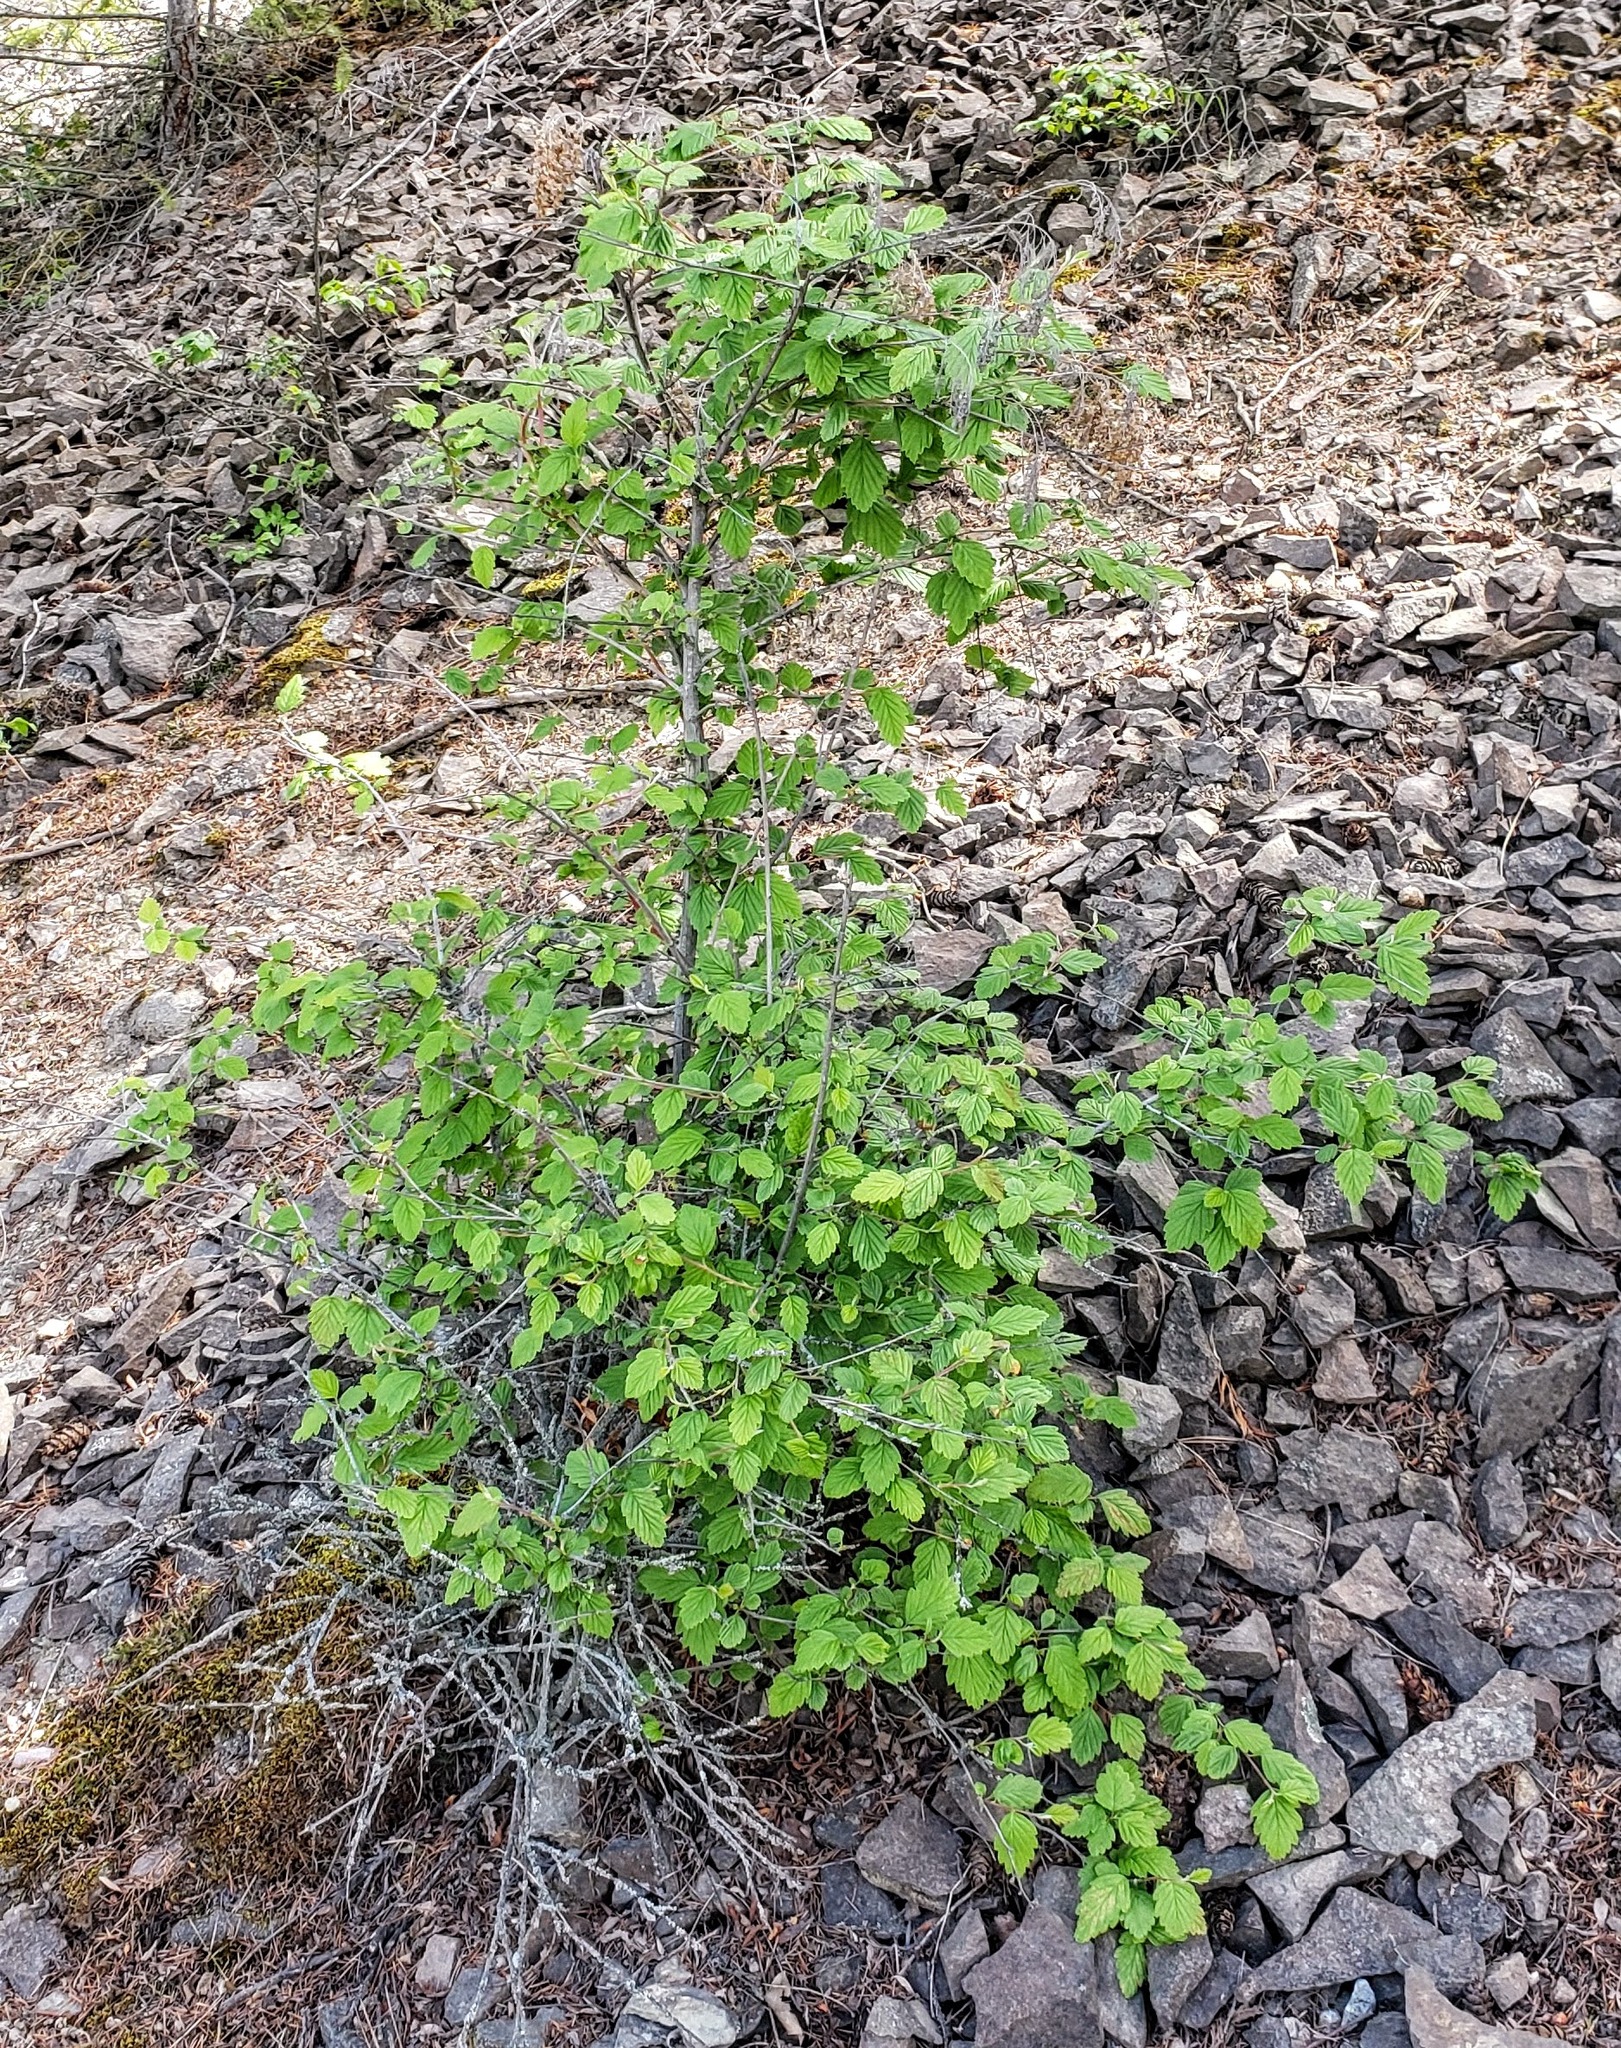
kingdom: Plantae
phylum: Tracheophyta
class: Magnoliopsida
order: Rosales
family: Rosaceae
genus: Holodiscus
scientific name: Holodiscus discolor
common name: Oceanspray
